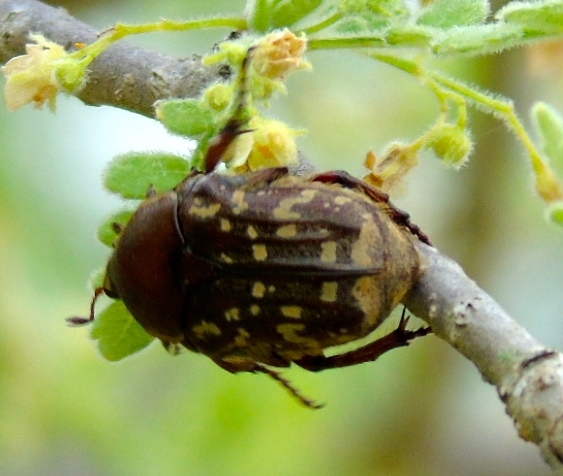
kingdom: Animalia
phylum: Arthropoda
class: Insecta
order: Coleoptera
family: Scarabaeidae
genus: Euphoria
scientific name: Euphoria leucographa
